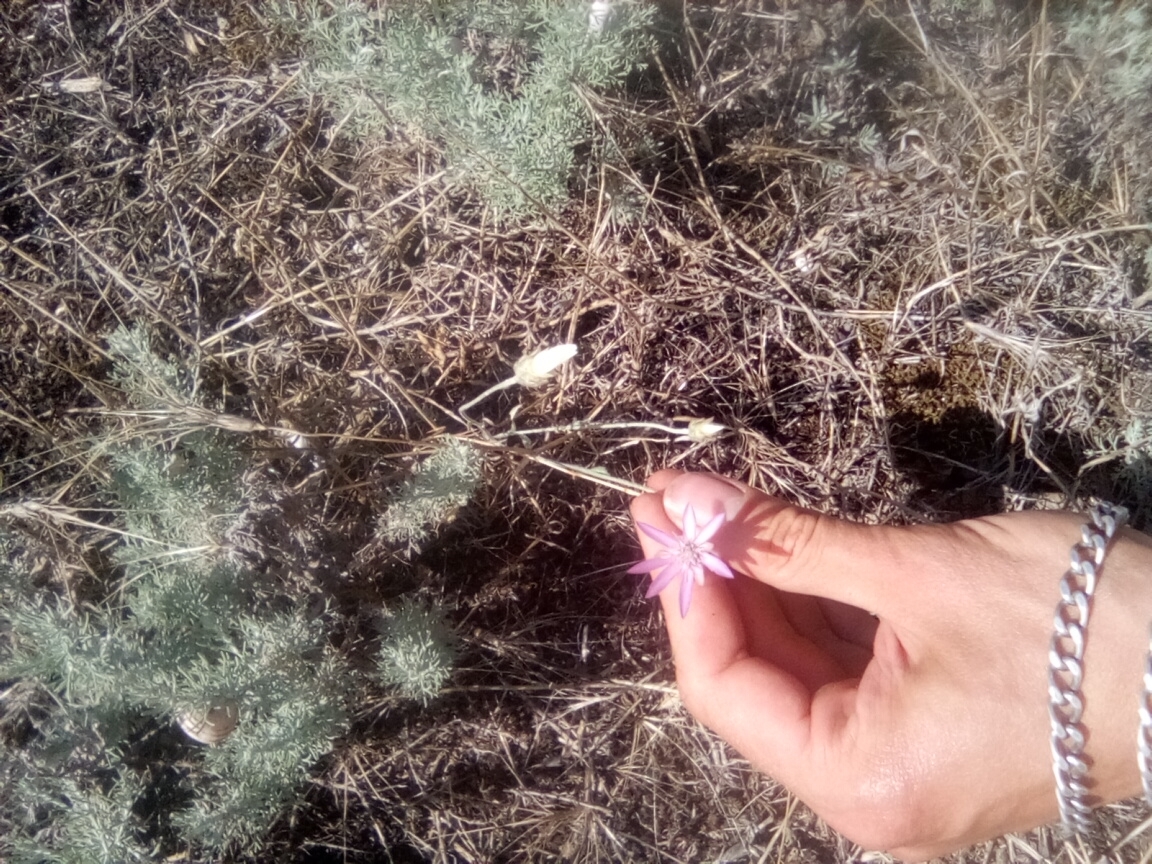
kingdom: Plantae
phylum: Tracheophyta
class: Magnoliopsida
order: Asterales
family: Asteraceae
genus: Xeranthemum
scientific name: Xeranthemum annuum
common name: Immortelle
